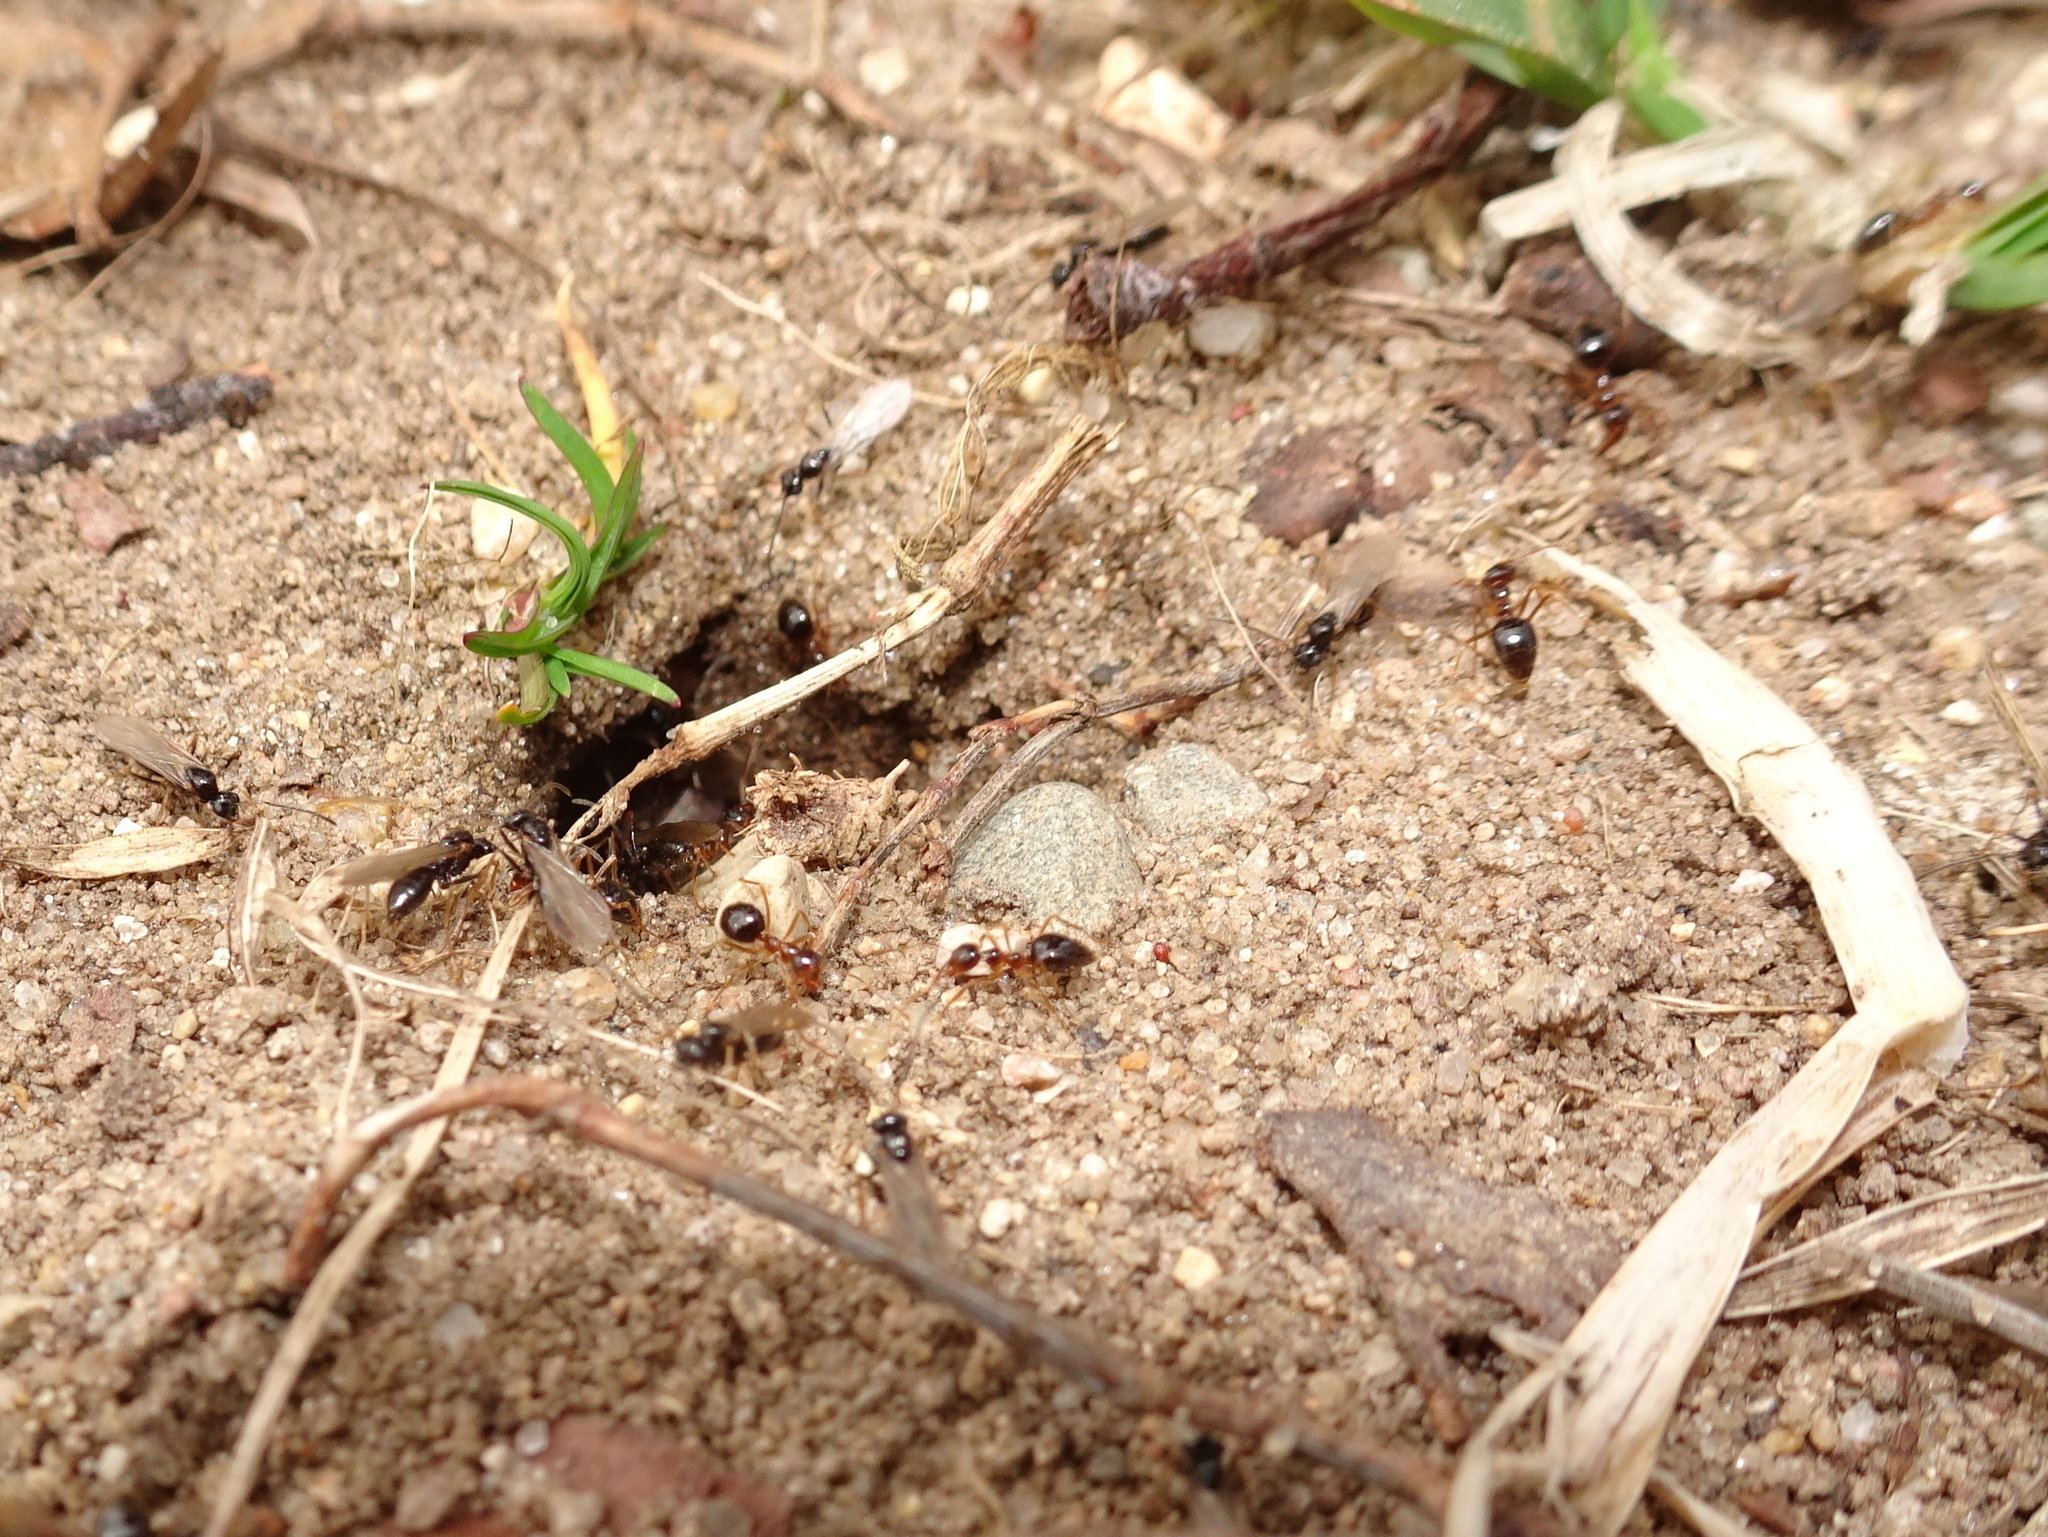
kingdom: Animalia
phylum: Arthropoda
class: Insecta
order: Hymenoptera
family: Formicidae
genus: Prenolepis
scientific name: Prenolepis imparis
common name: Small honey ant
